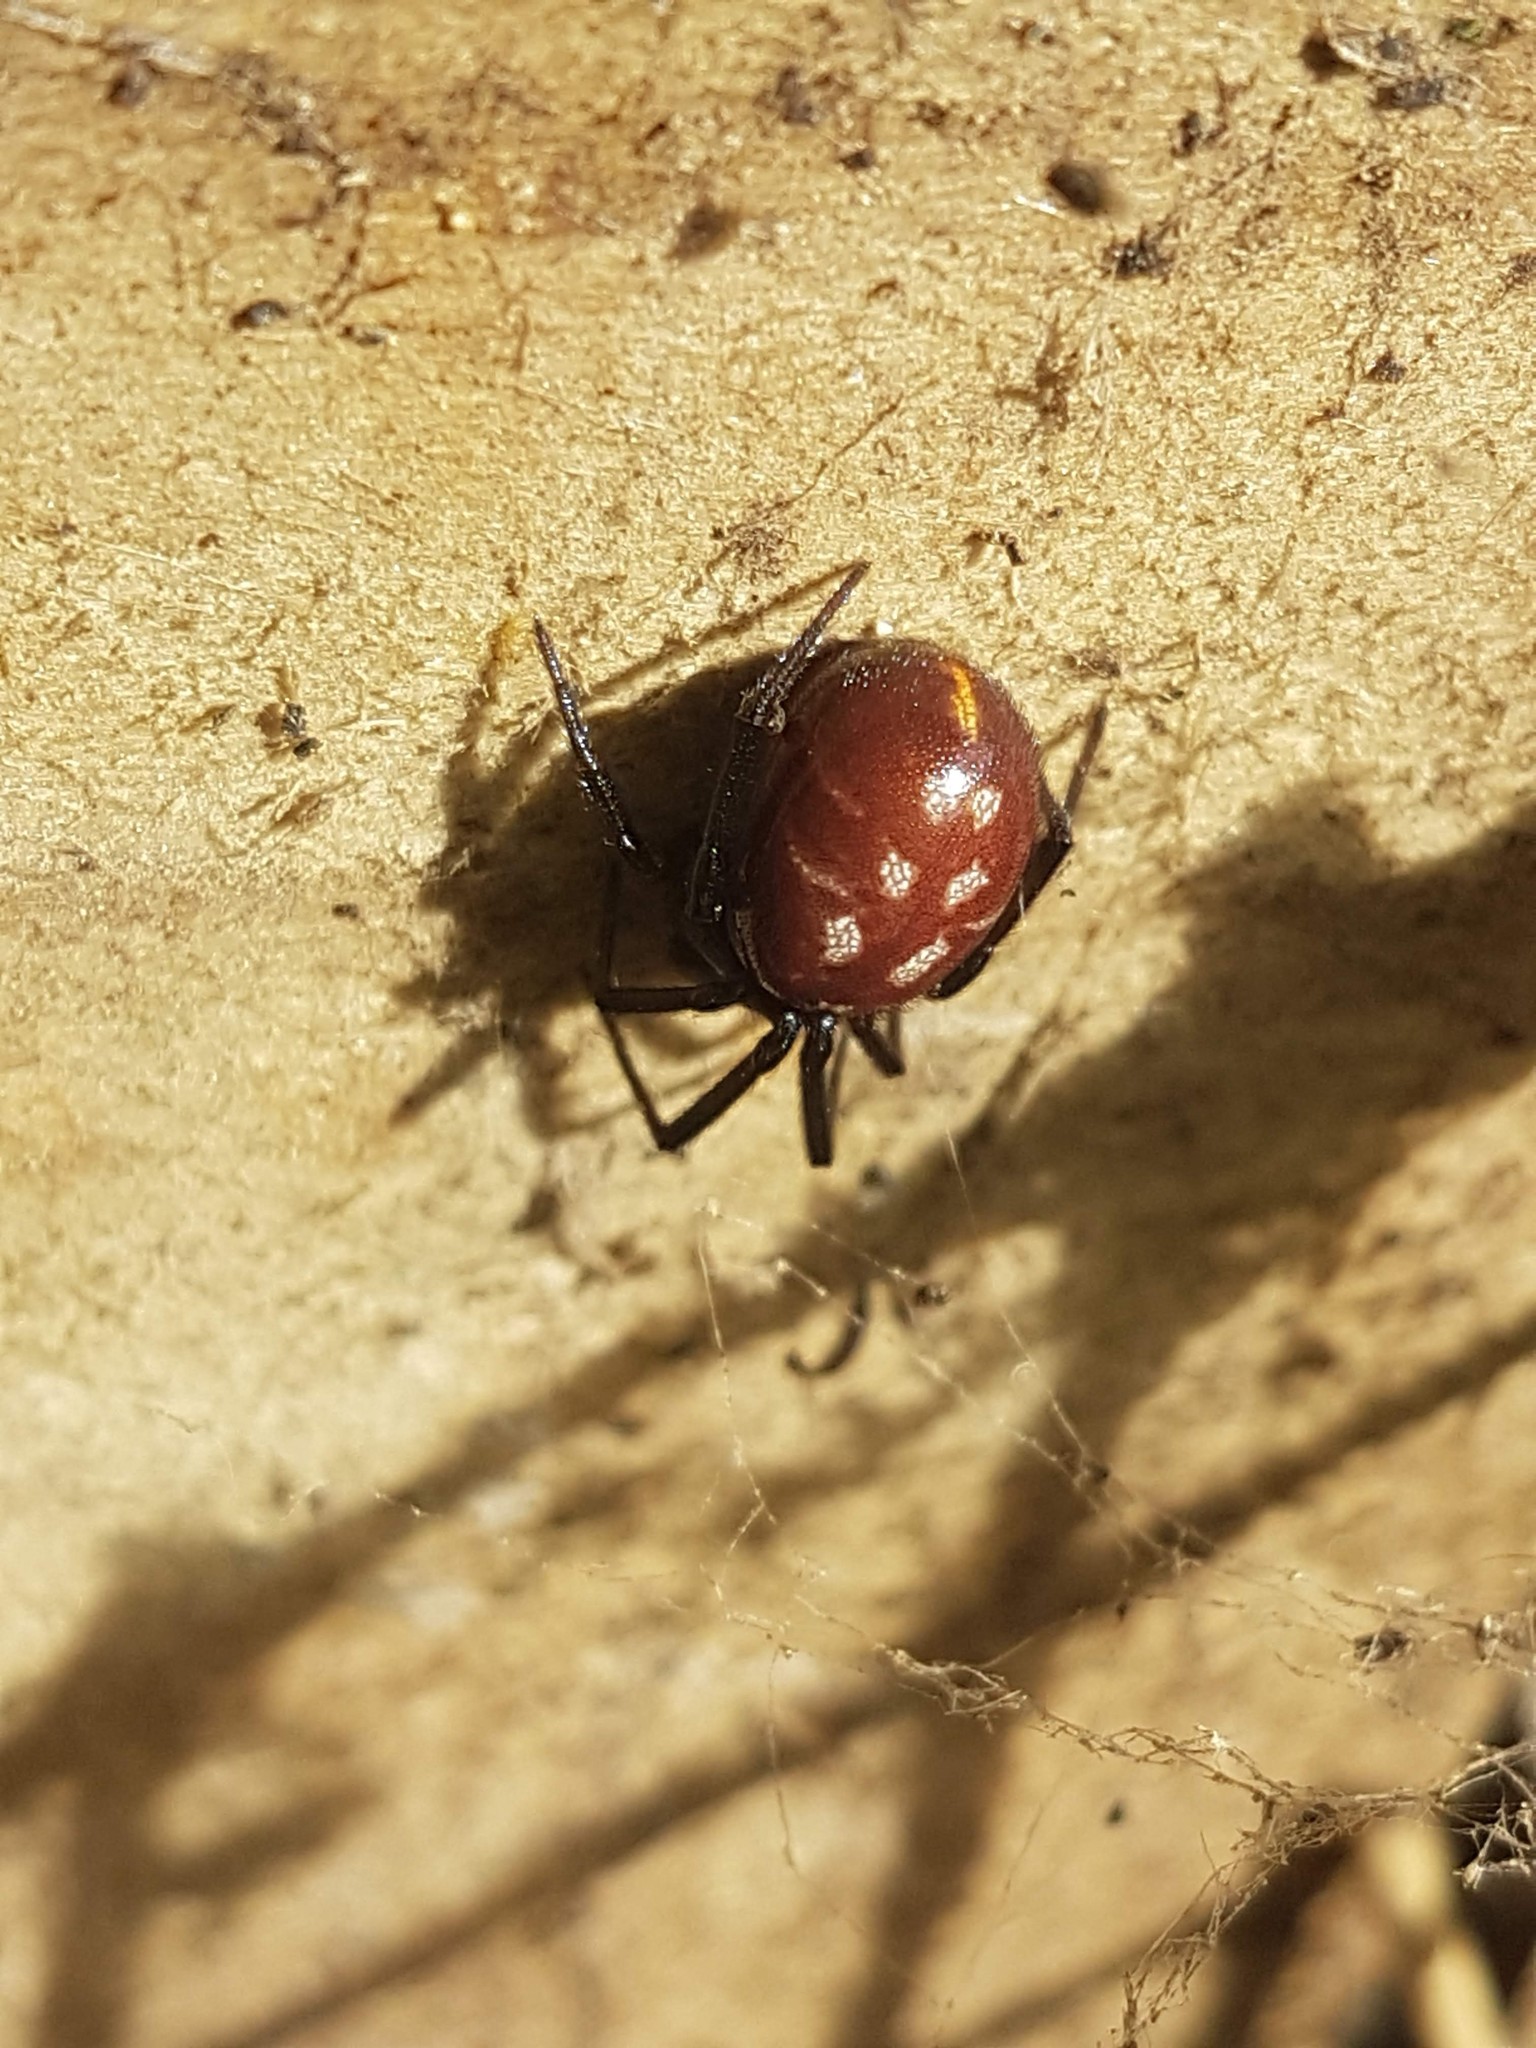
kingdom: Animalia
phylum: Arthropoda
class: Arachnida
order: Araneae
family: Theridiidae
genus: Steatoda
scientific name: Steatoda capensis
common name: Cobweb weaver
